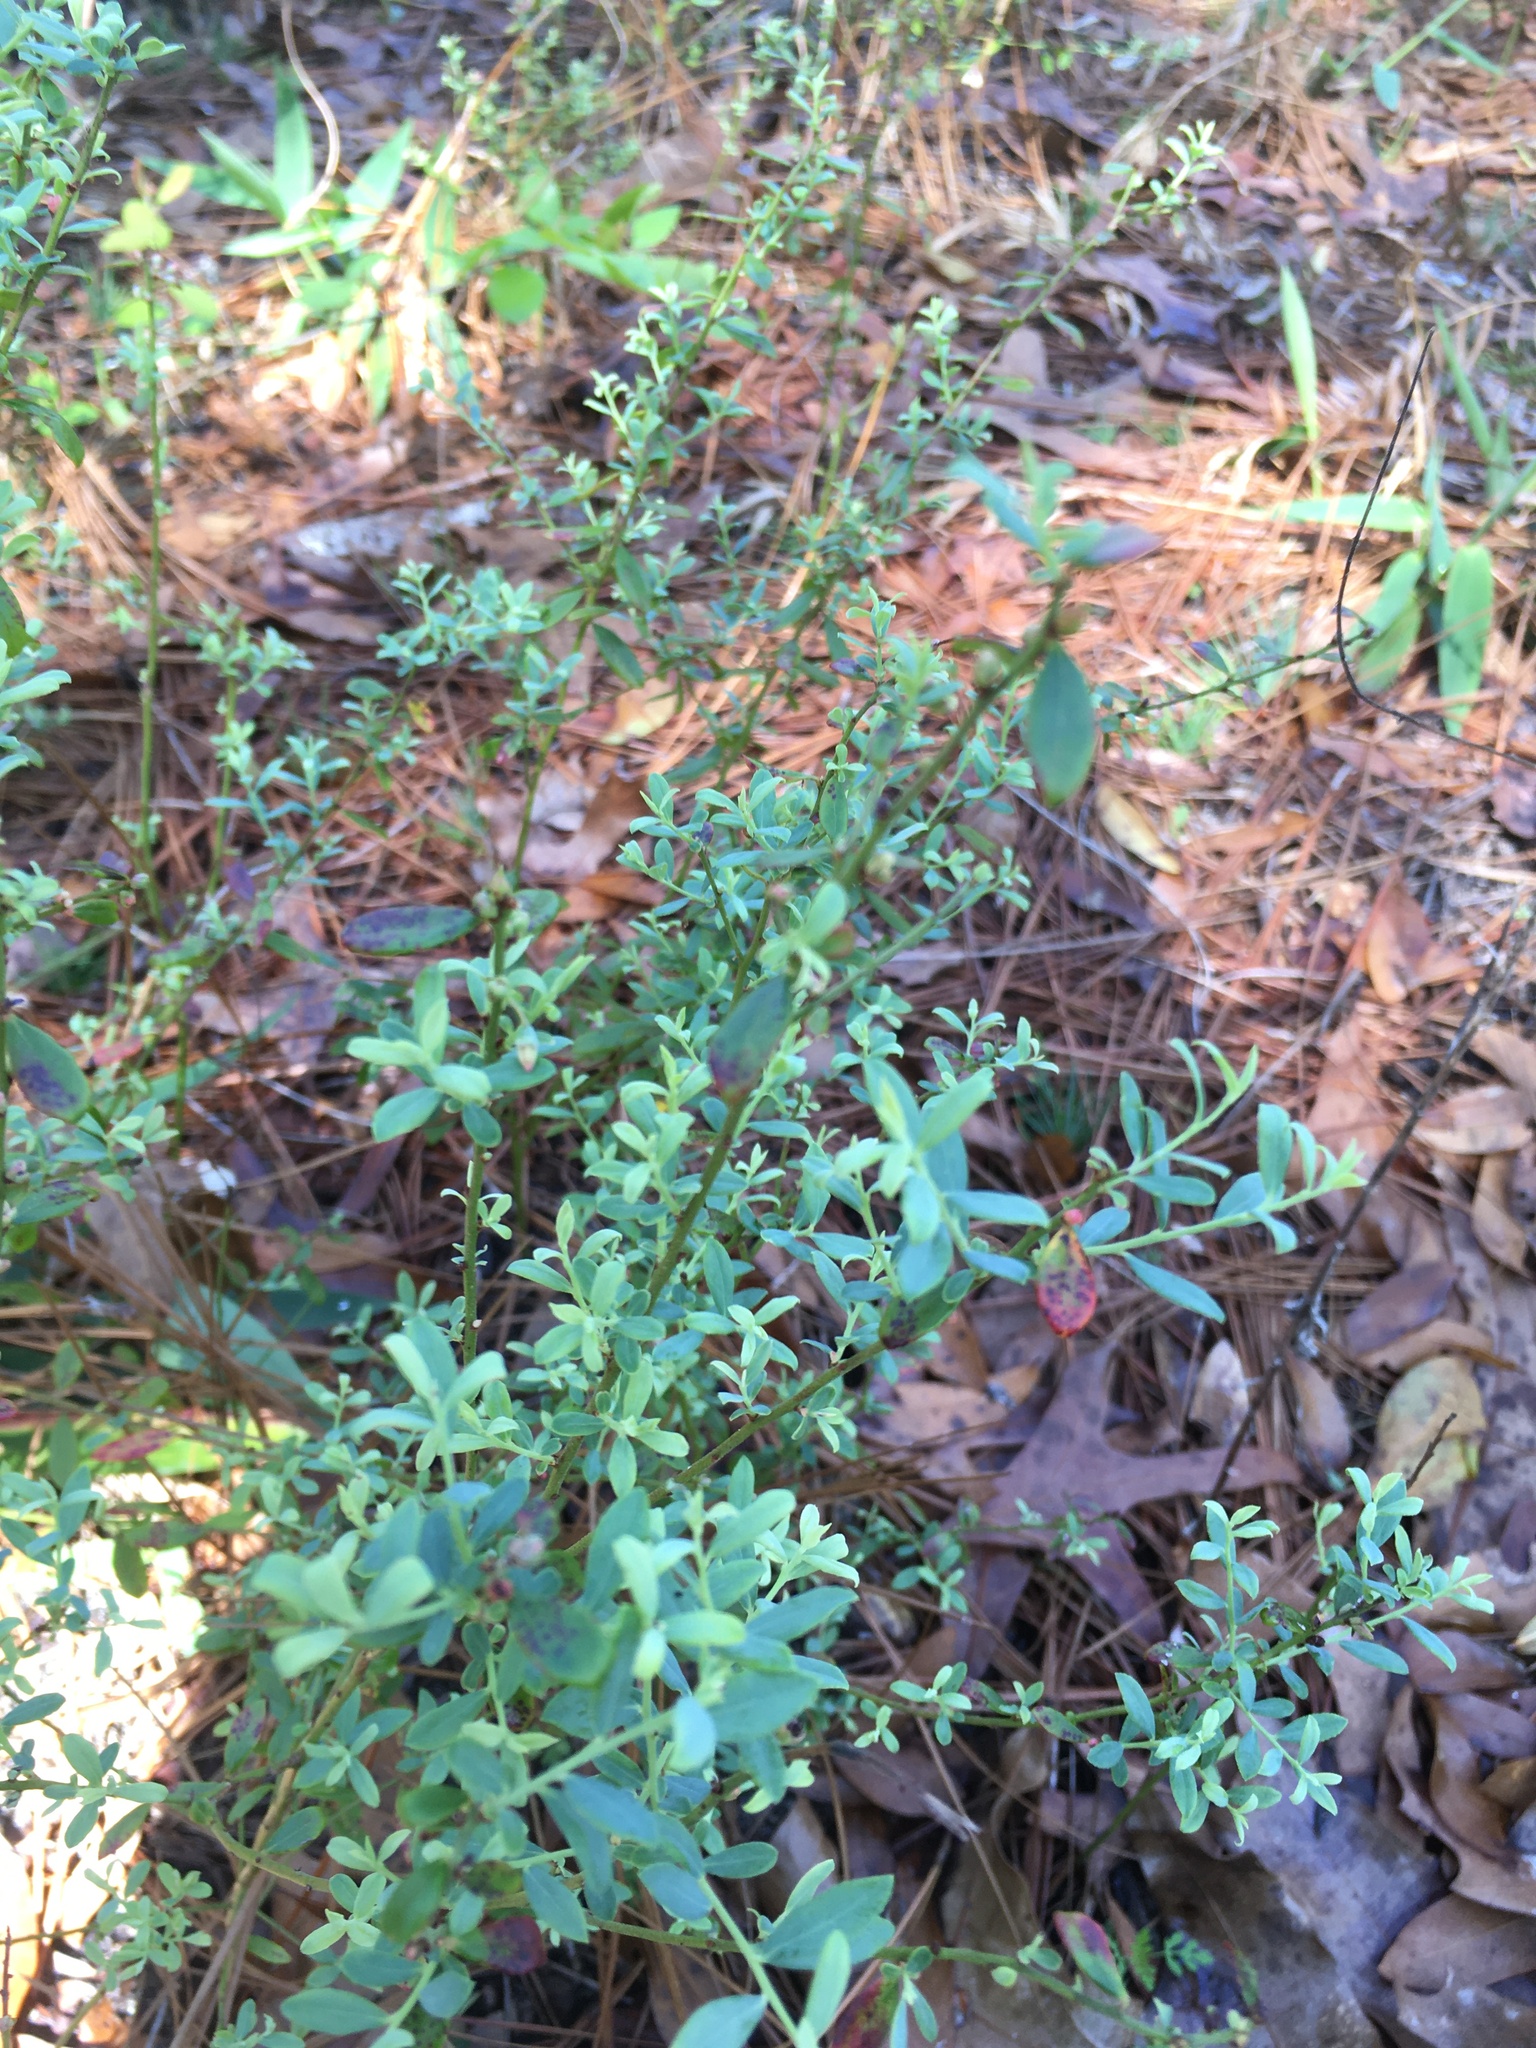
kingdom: Plantae
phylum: Tracheophyta
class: Magnoliopsida
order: Ericales
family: Ericaceae
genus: Vaccinium
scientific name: Vaccinium darrowii
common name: Darrow's blueberry
